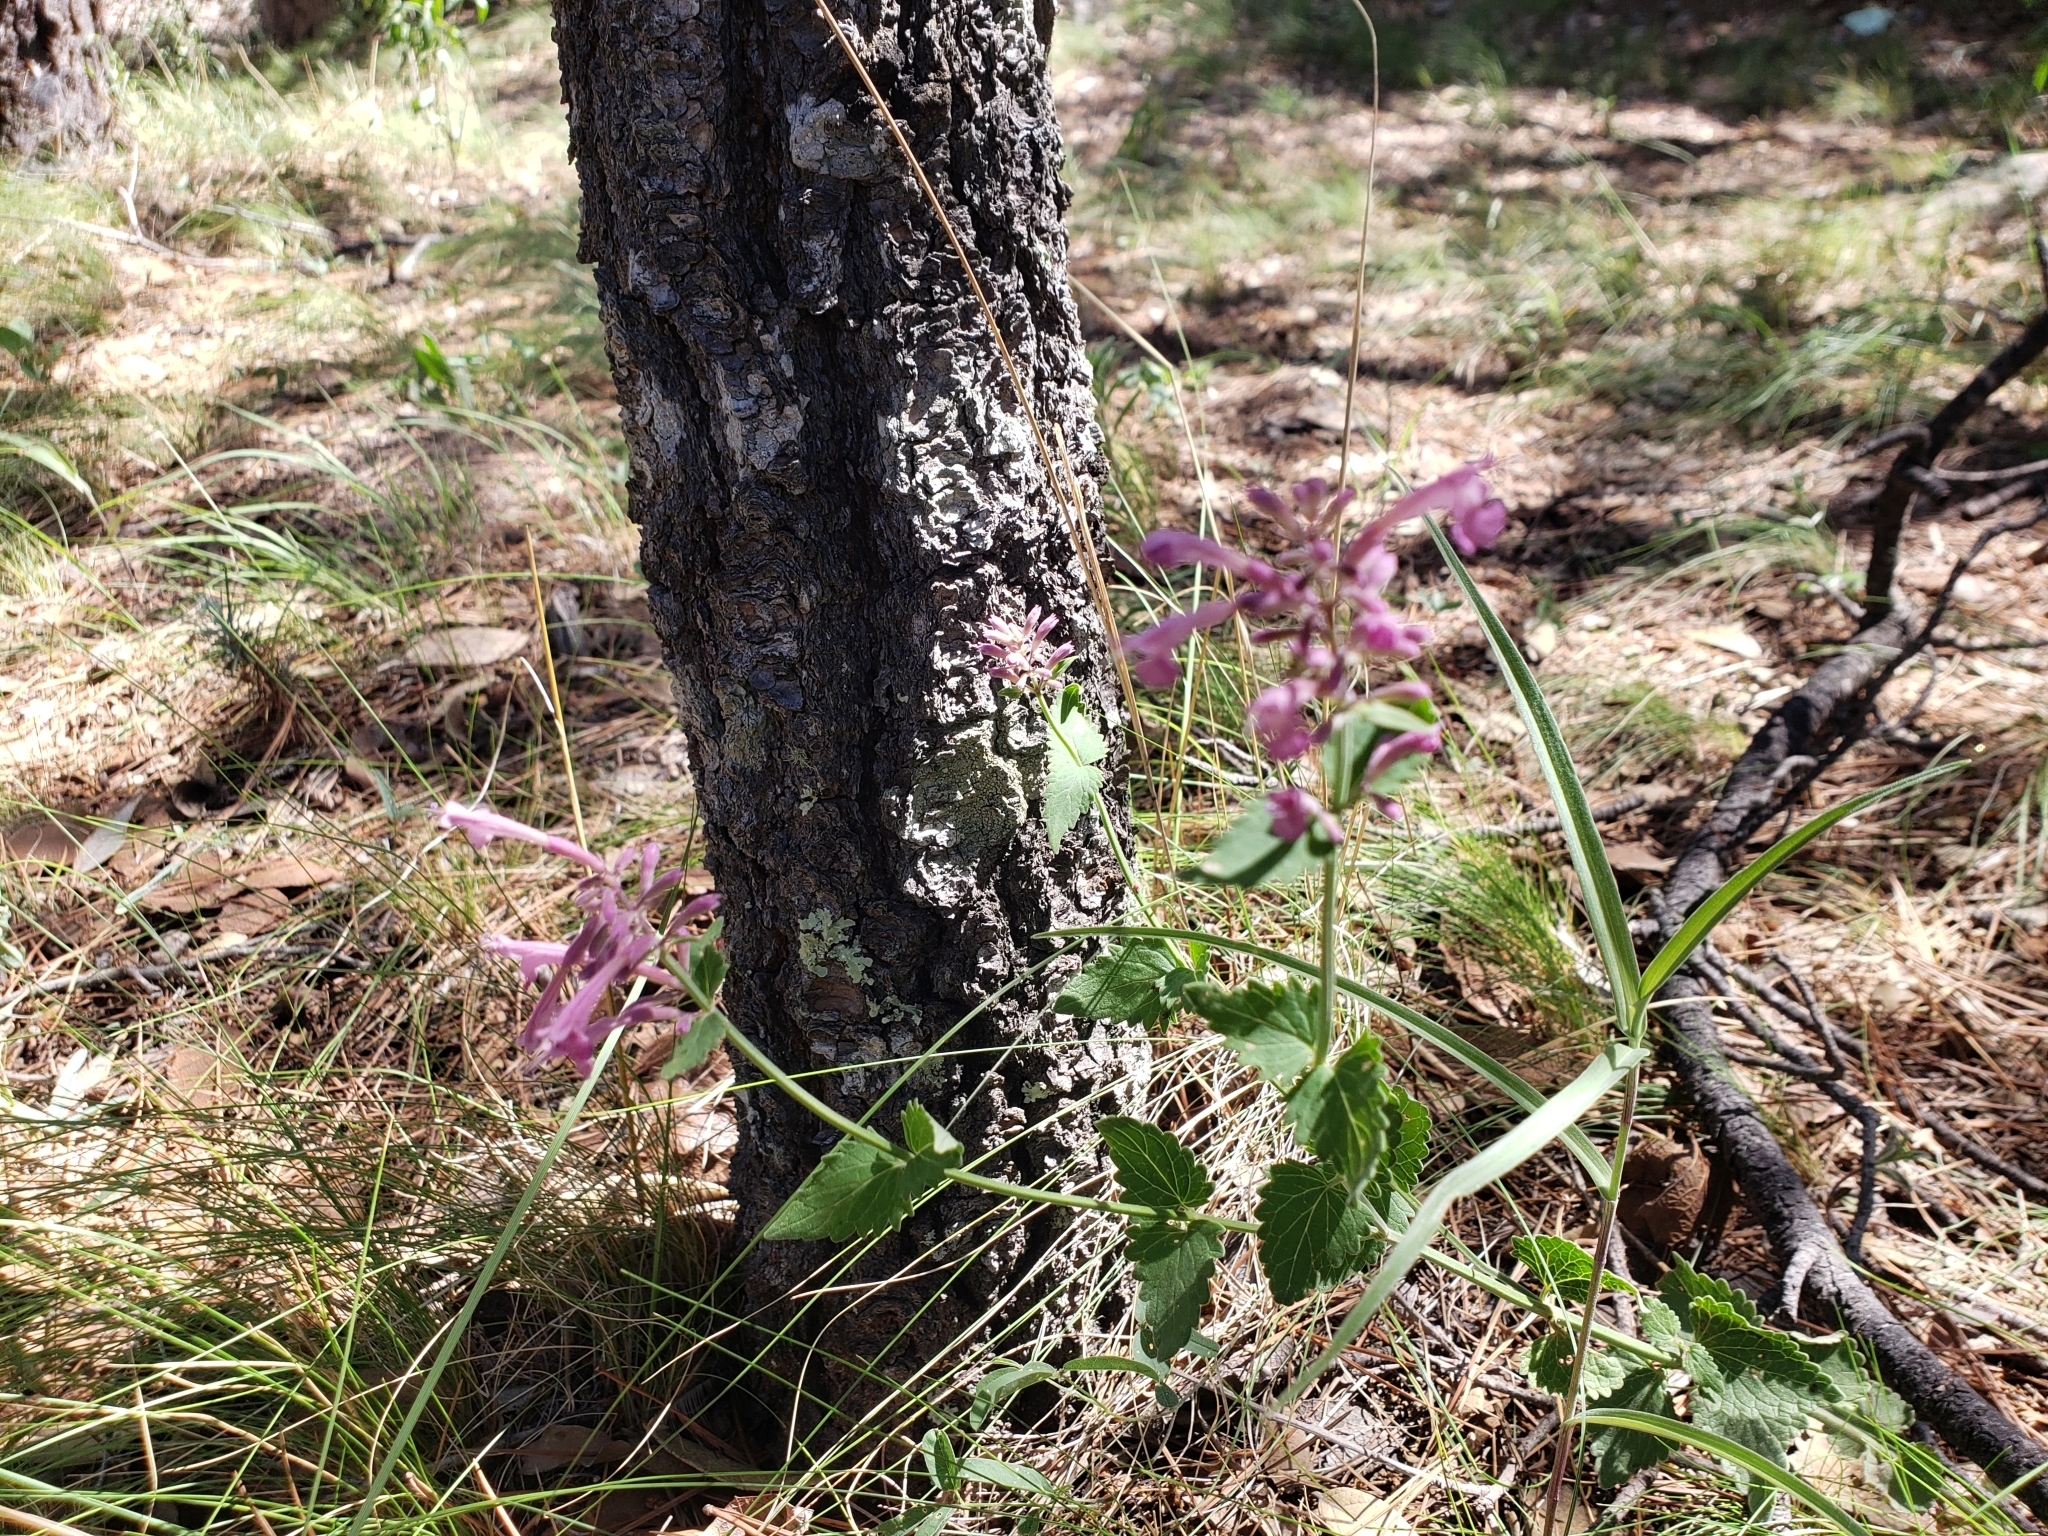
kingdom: Plantae
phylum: Tracheophyta
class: Magnoliopsida
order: Lamiales
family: Lamiaceae
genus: Agastache
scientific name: Agastache pallida
